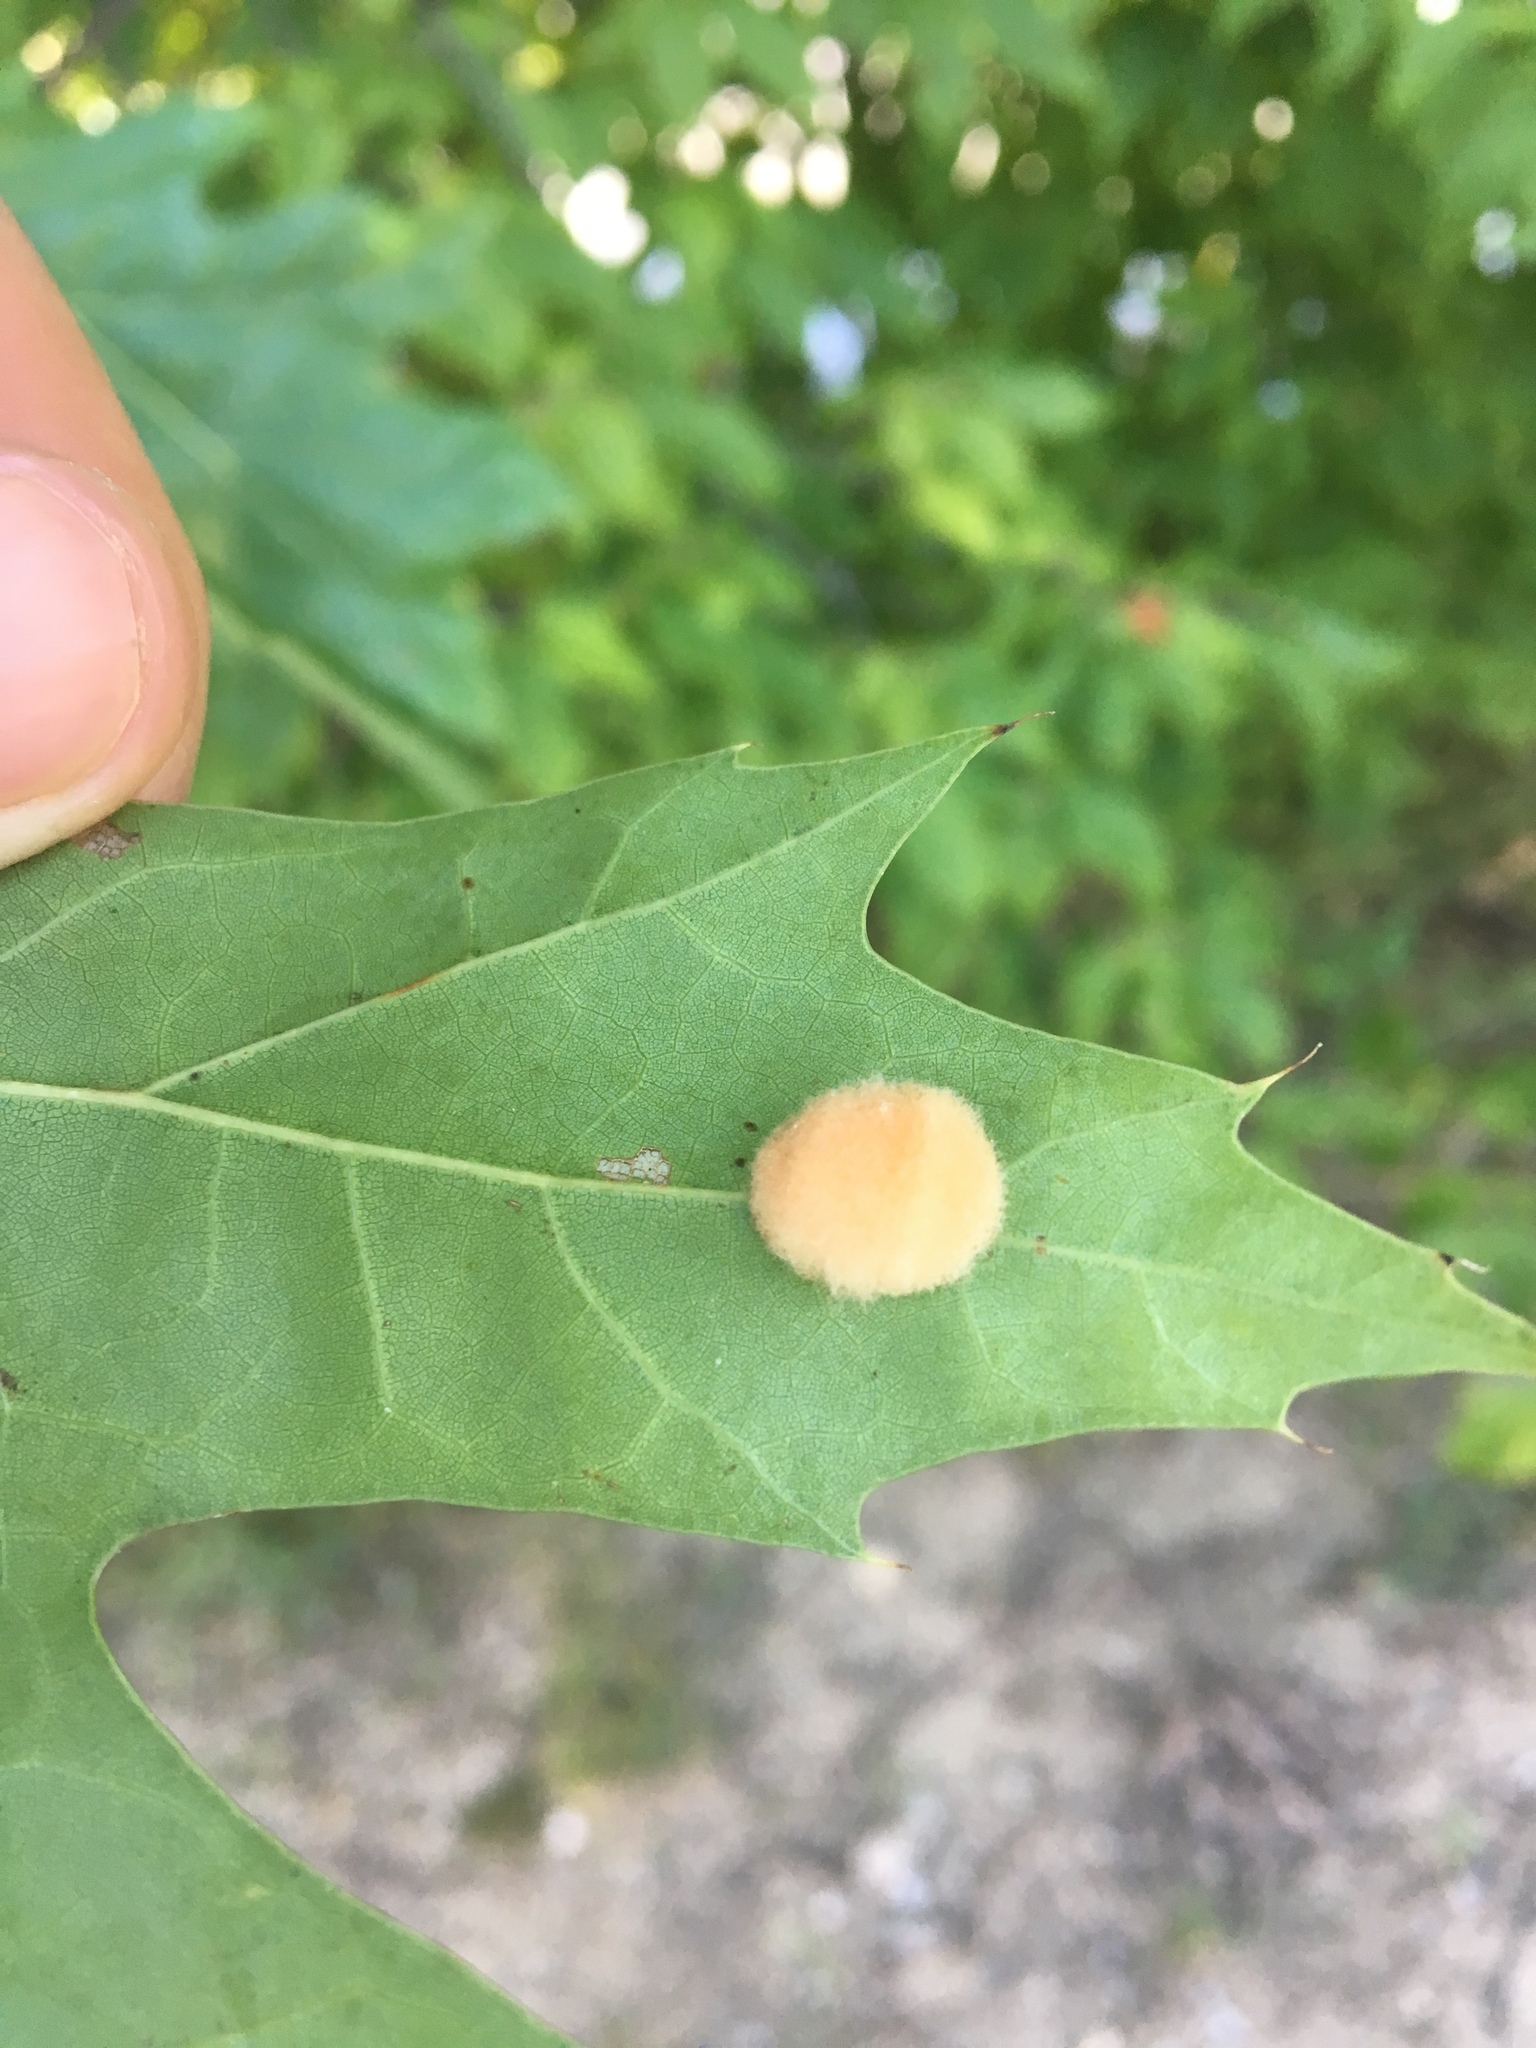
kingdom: Animalia
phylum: Arthropoda
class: Insecta
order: Hymenoptera
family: Cynipidae
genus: Callirhytis
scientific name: Callirhytis
